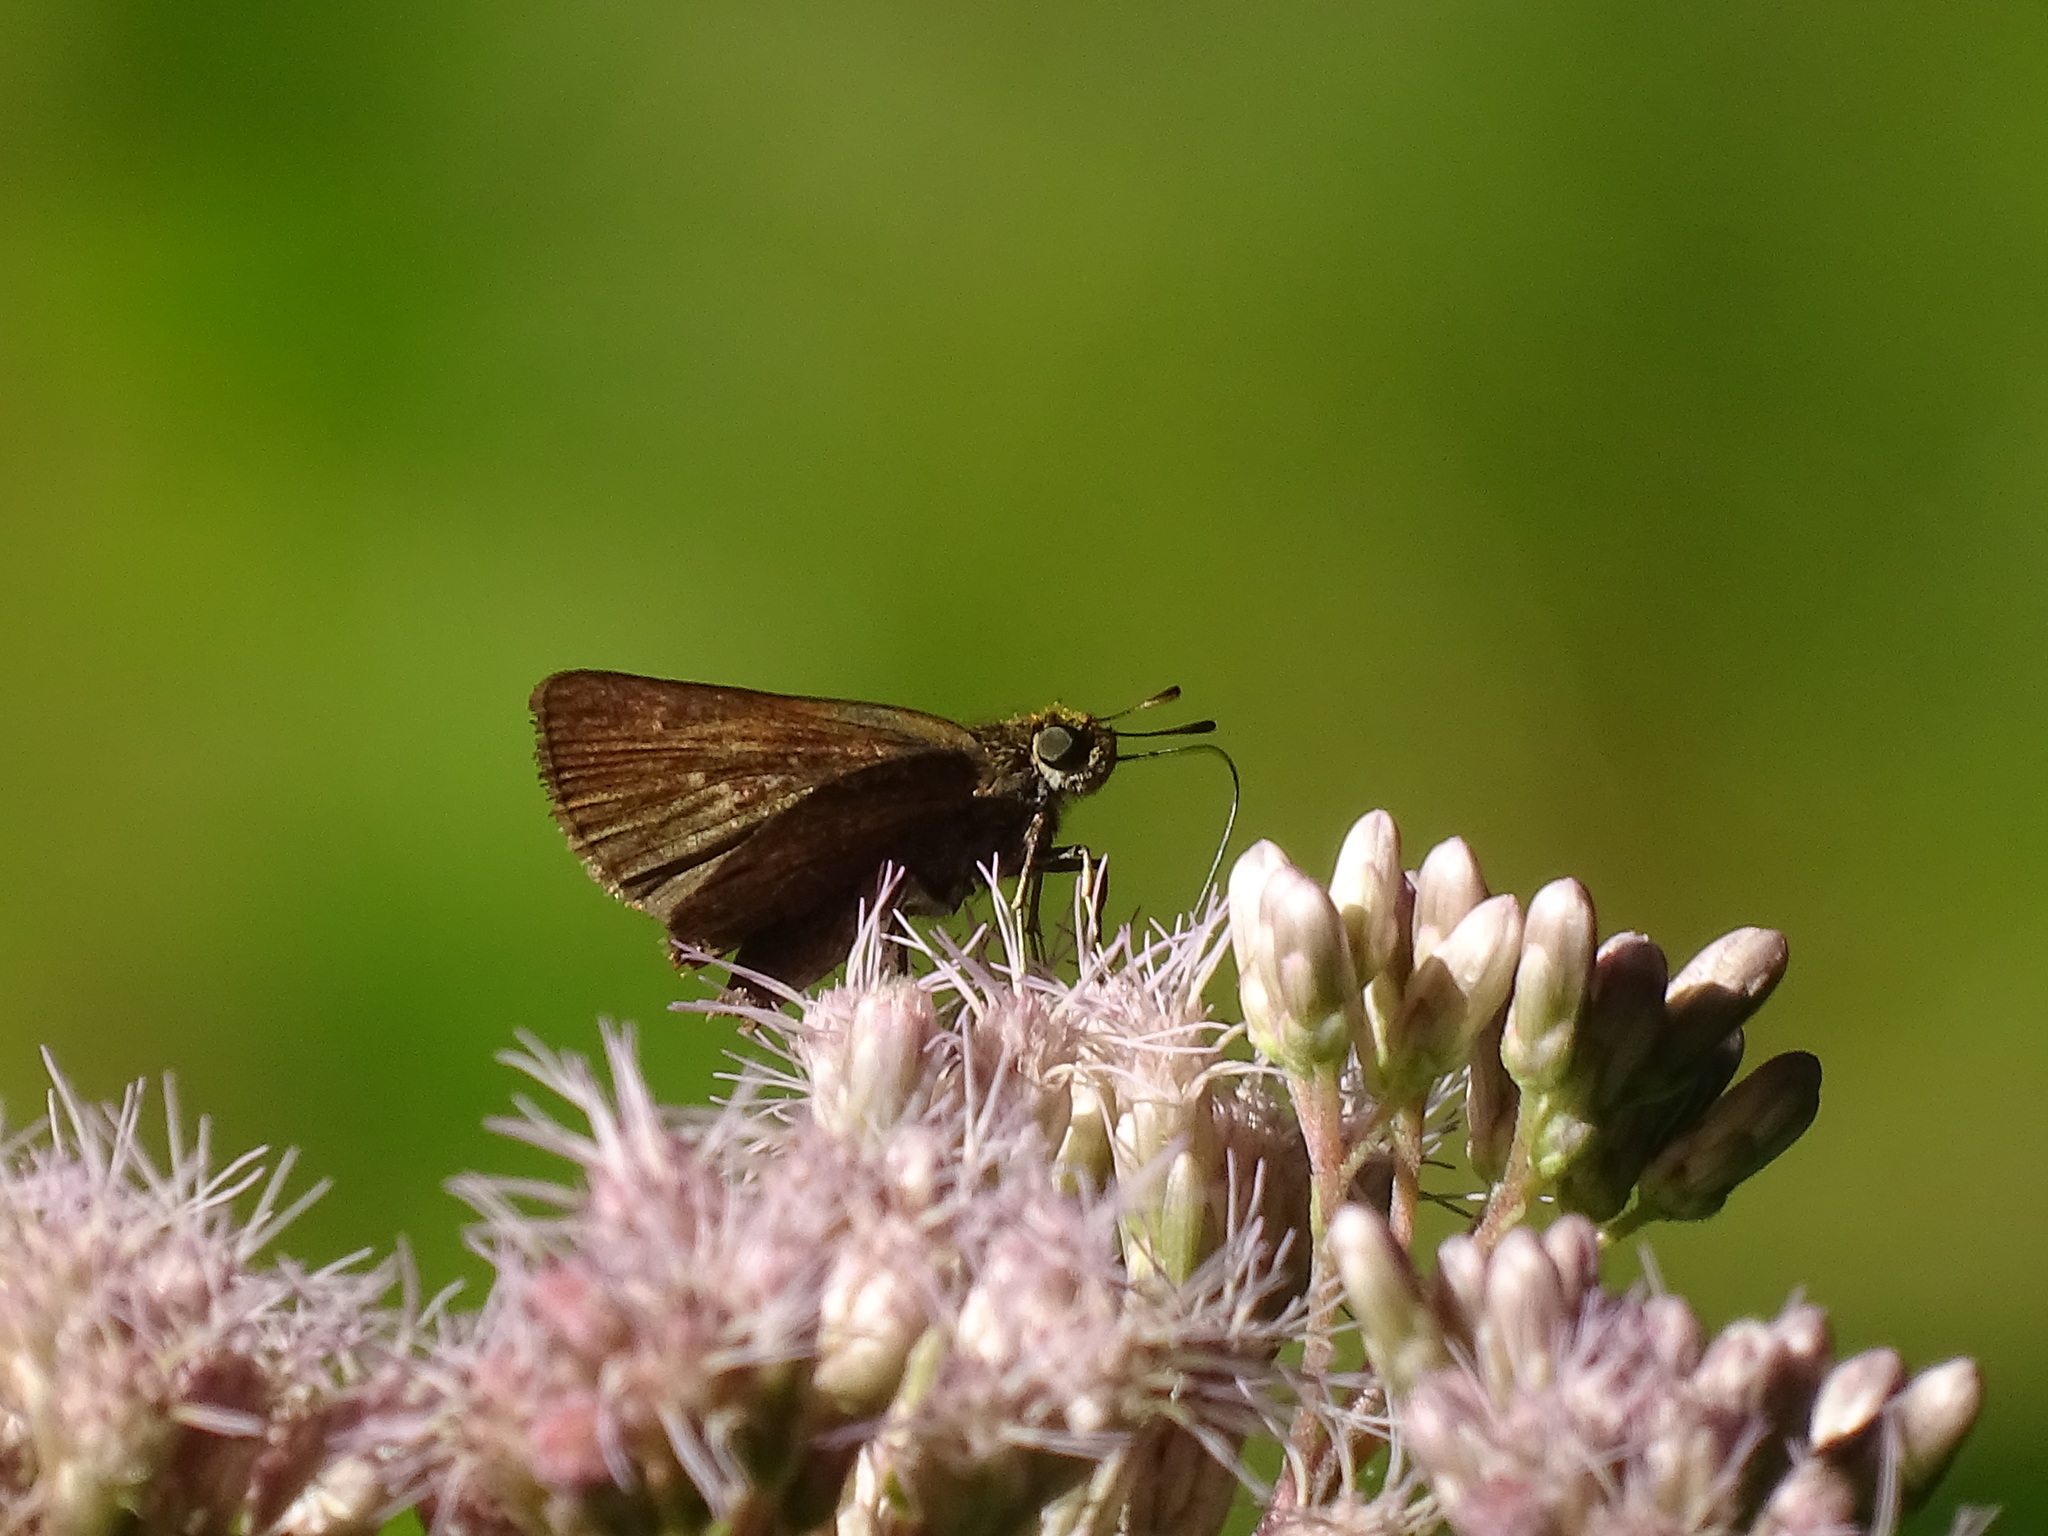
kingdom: Animalia
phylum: Arthropoda
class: Insecta
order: Lepidoptera
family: Hesperiidae
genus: Euphyes
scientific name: Euphyes vestris
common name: Dun skipper
